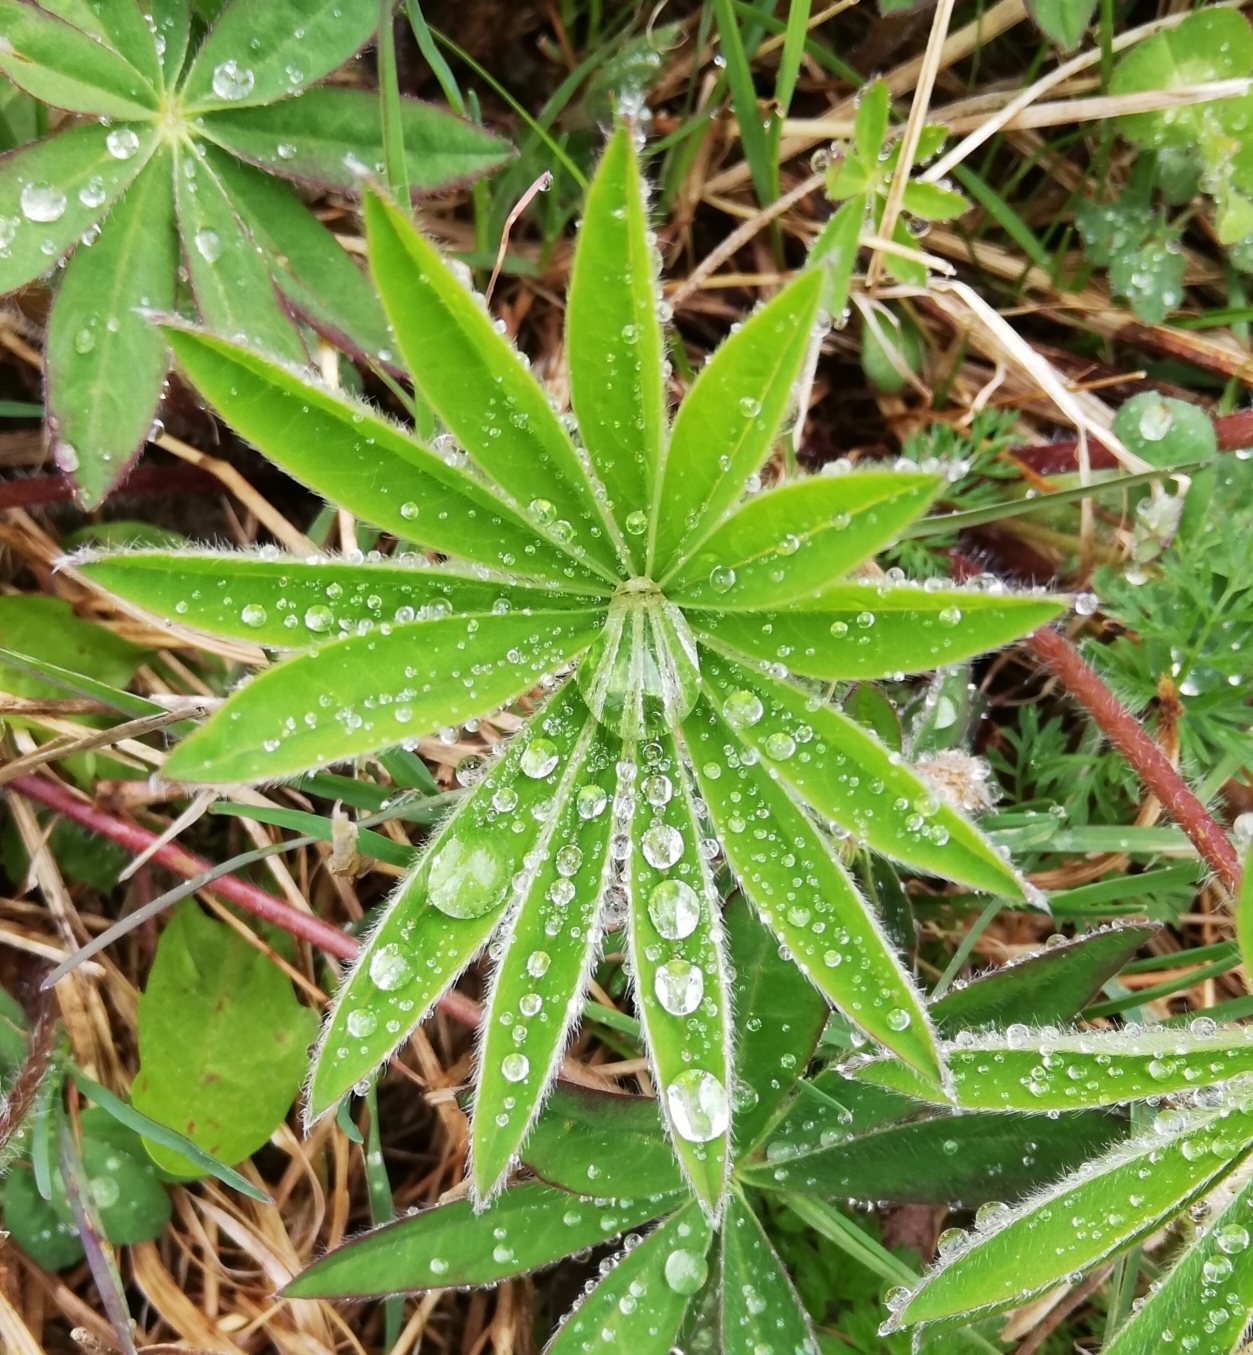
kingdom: Plantae
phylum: Tracheophyta
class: Magnoliopsida
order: Fabales
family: Fabaceae
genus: Lupinus
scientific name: Lupinus polyphyllus
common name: Garden lupin
